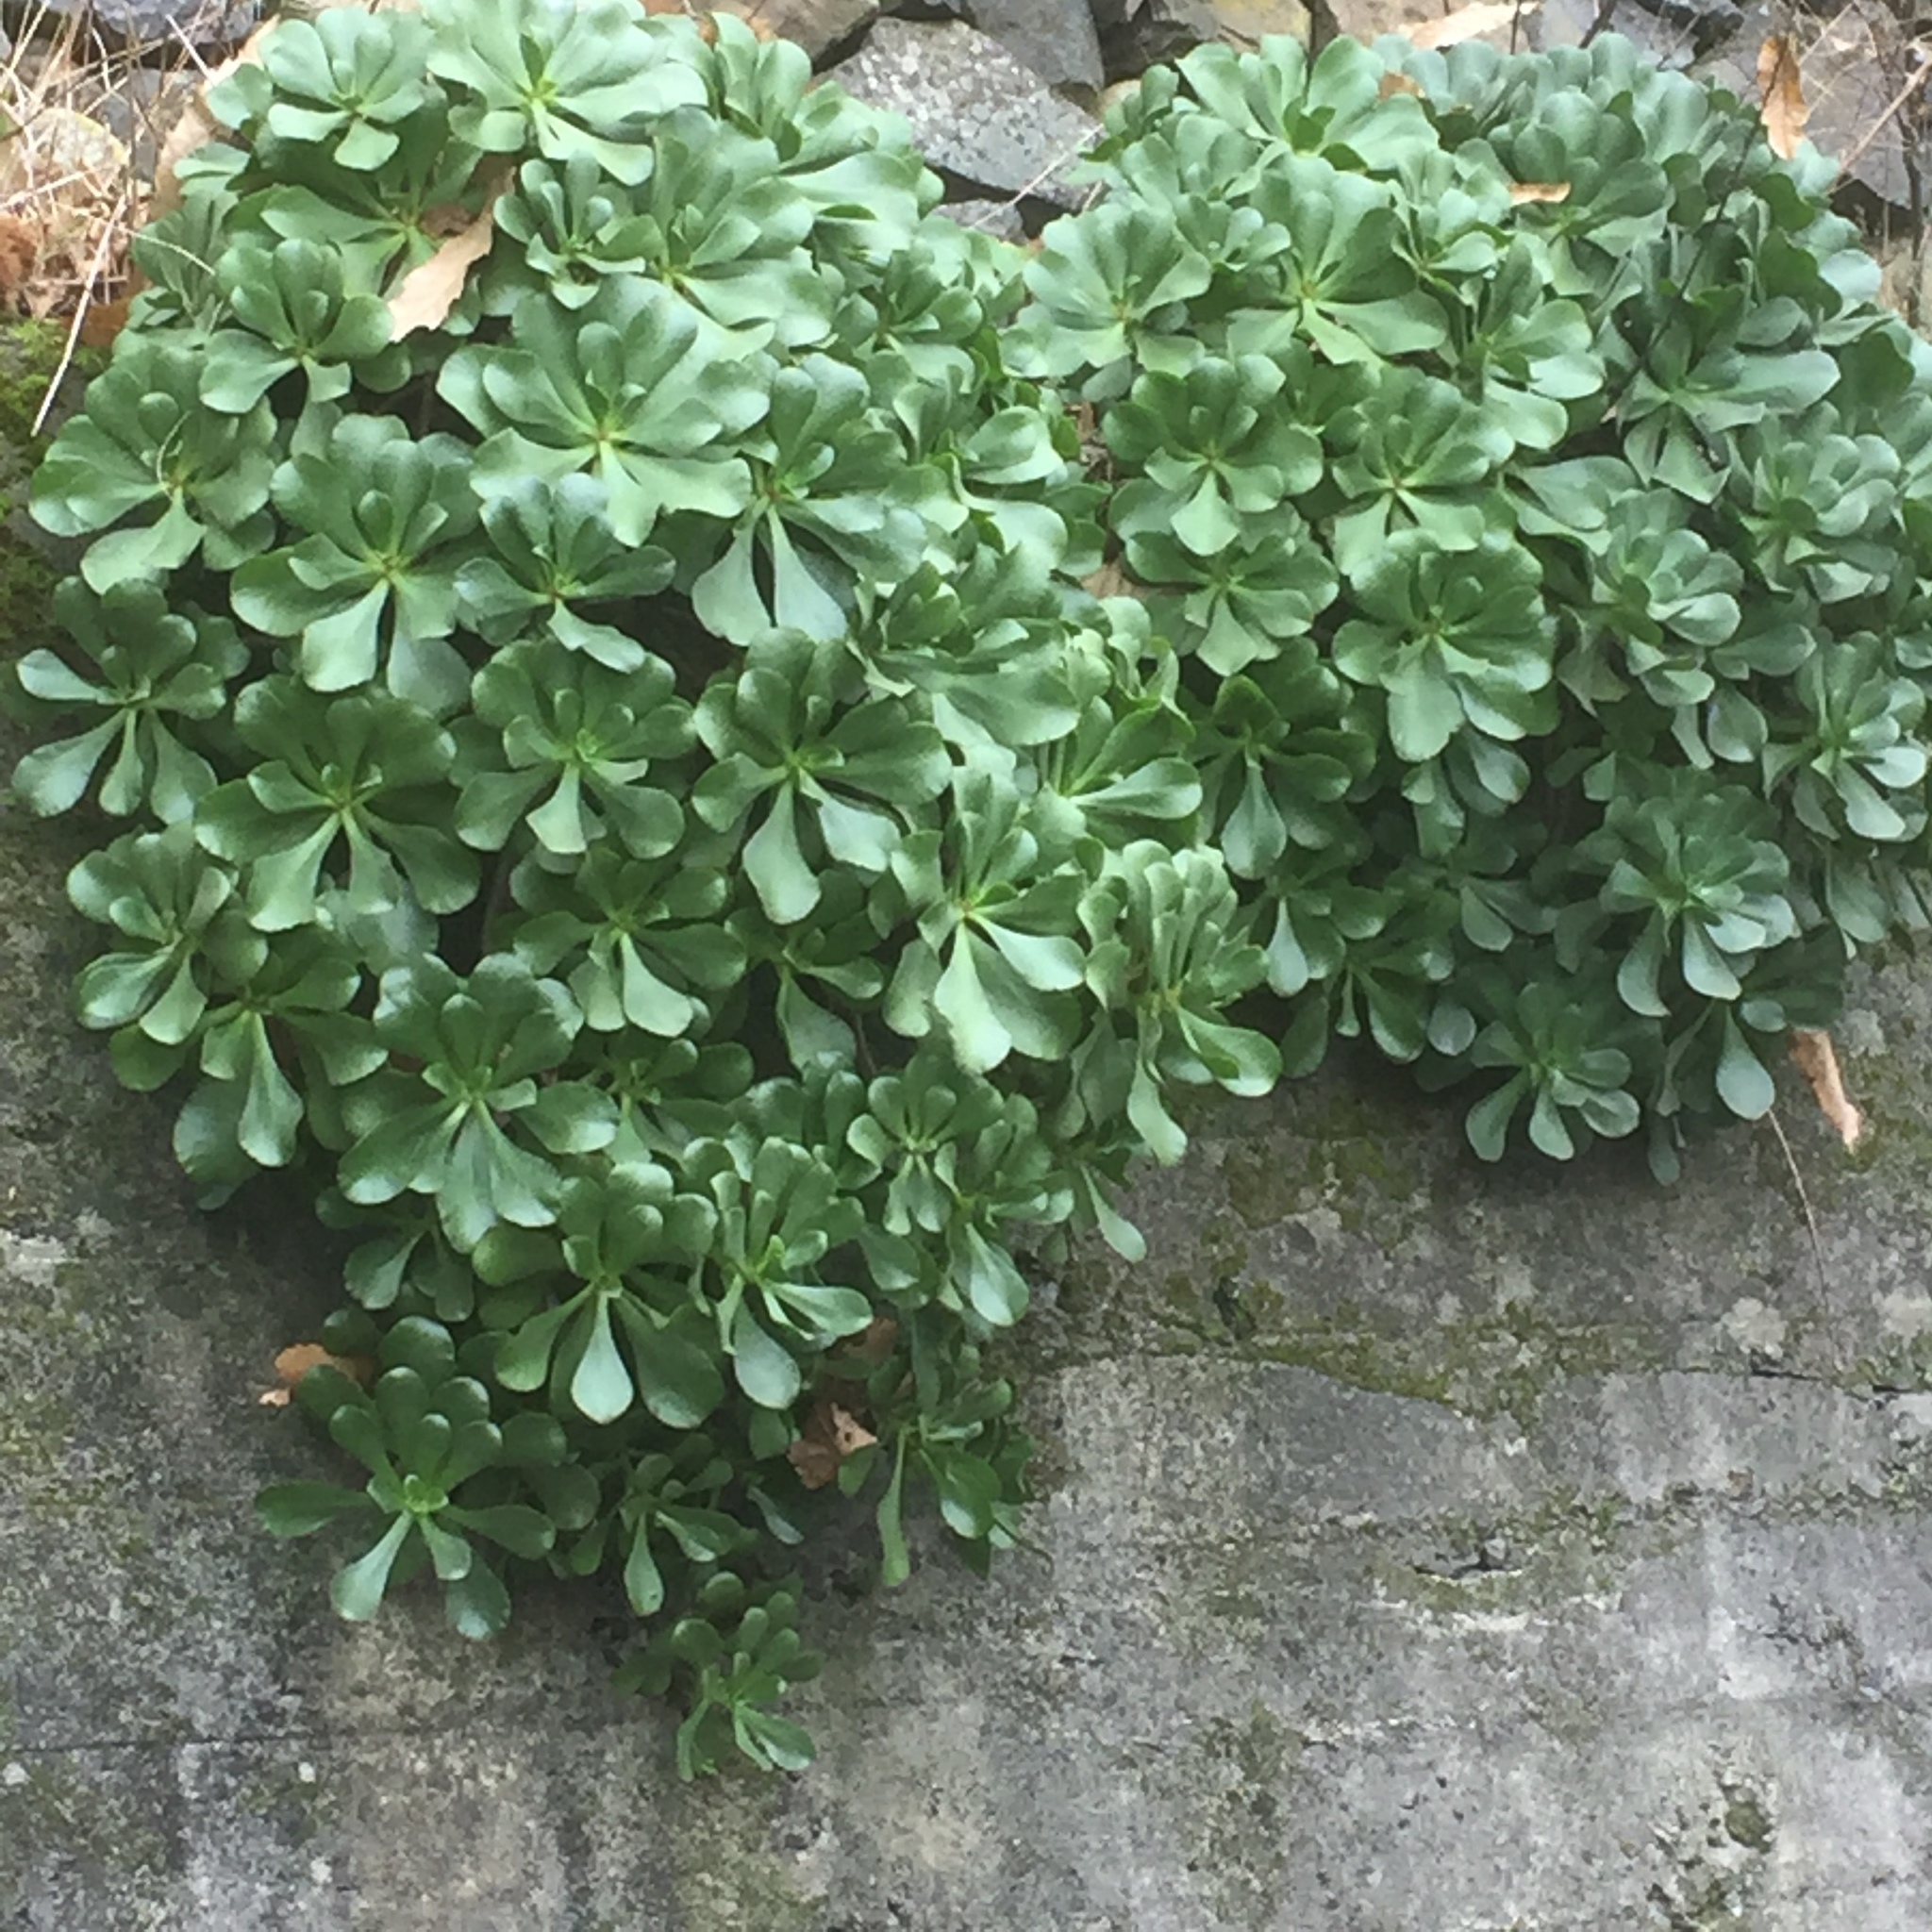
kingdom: Plantae
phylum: Tracheophyta
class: Magnoliopsida
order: Saxifragales
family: Crassulaceae
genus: Aeonium
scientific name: Aeonium glutinosum
